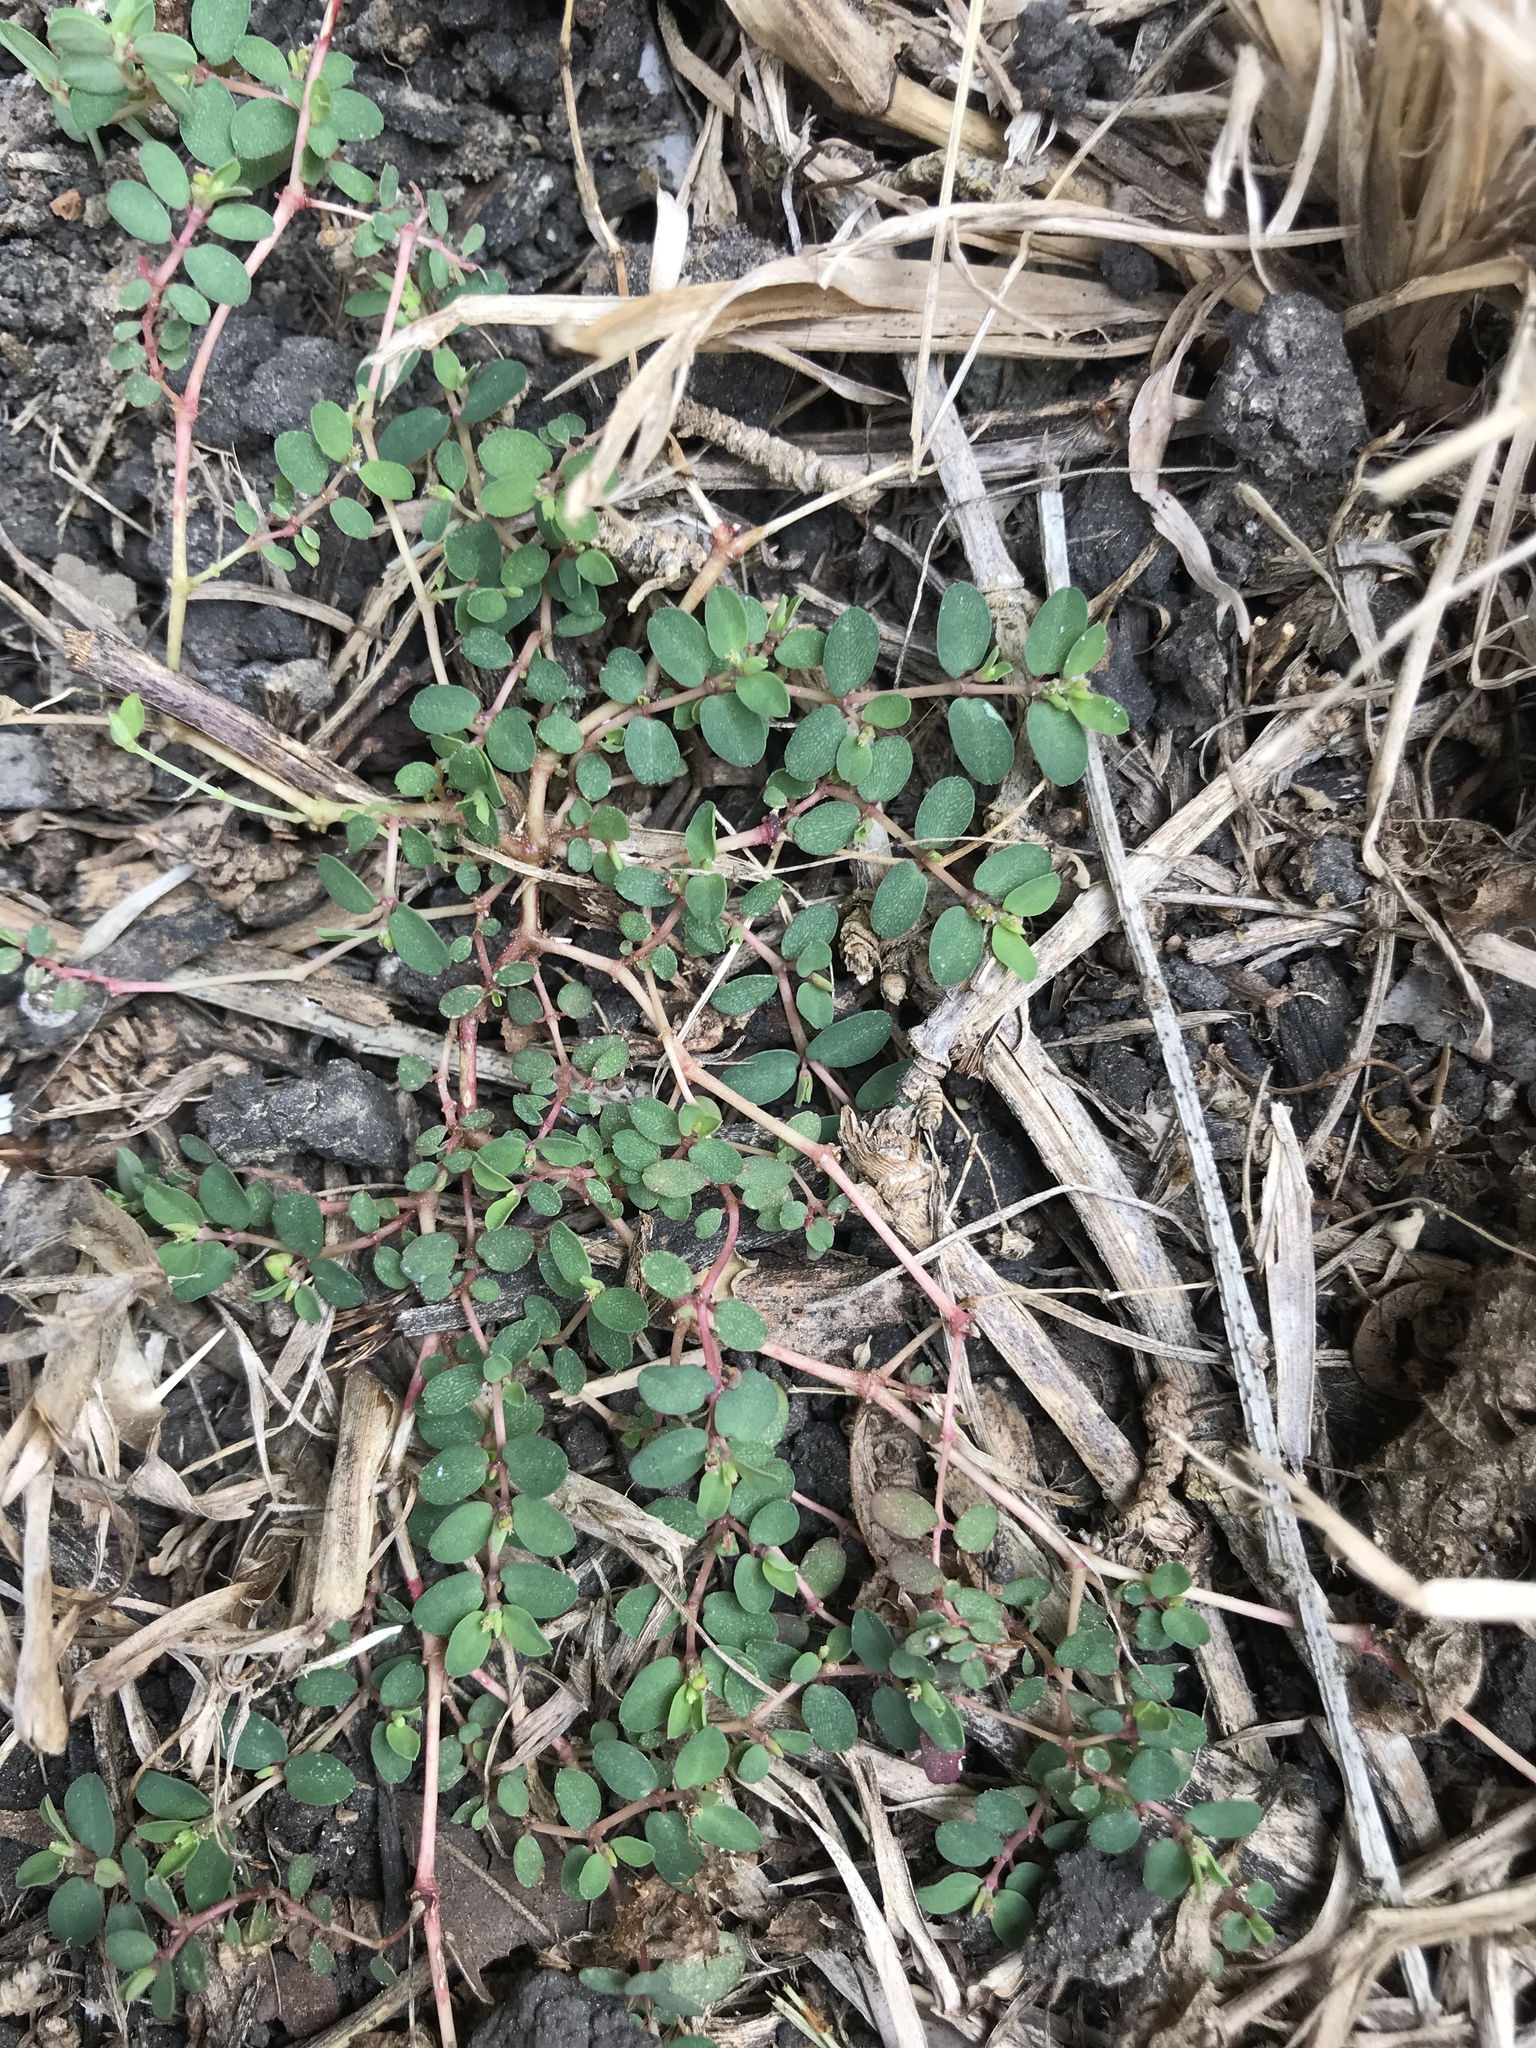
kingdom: Plantae
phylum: Tracheophyta
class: Magnoliopsida
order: Malpighiales
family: Euphorbiaceae
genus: Euphorbia
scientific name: Euphorbia serpens
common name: Matted sandmat
